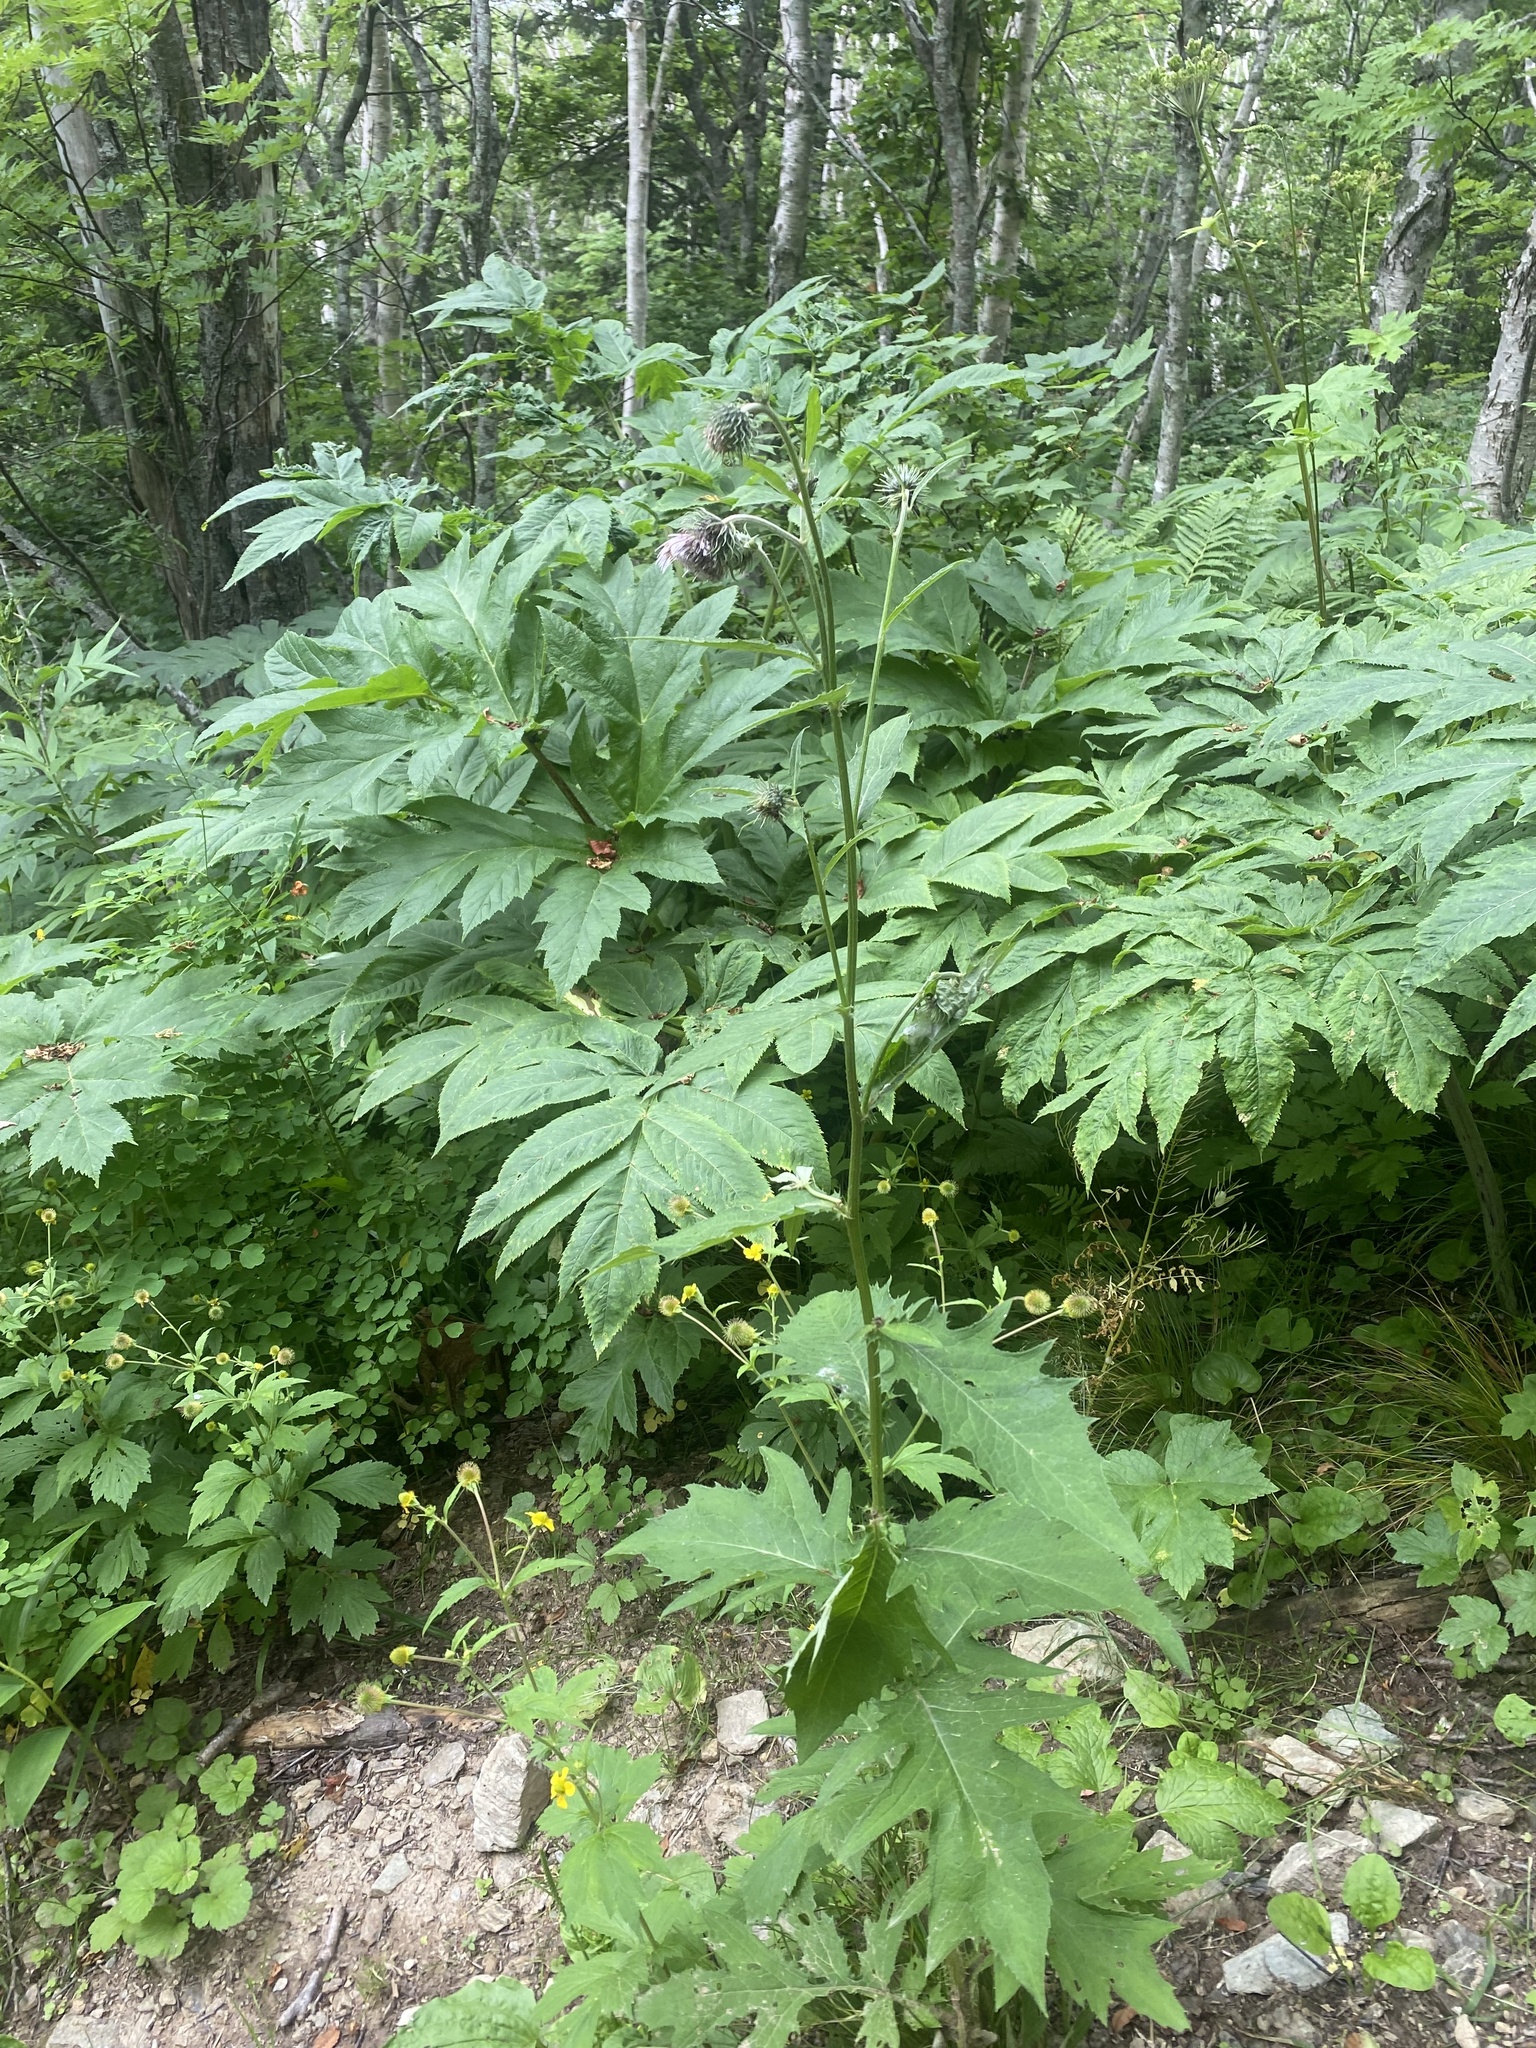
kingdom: Plantae
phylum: Tracheophyta
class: Magnoliopsida
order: Asterales
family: Asteraceae
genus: Cirsium
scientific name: Cirsium kamtschaticum
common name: Kamchatka thistle
